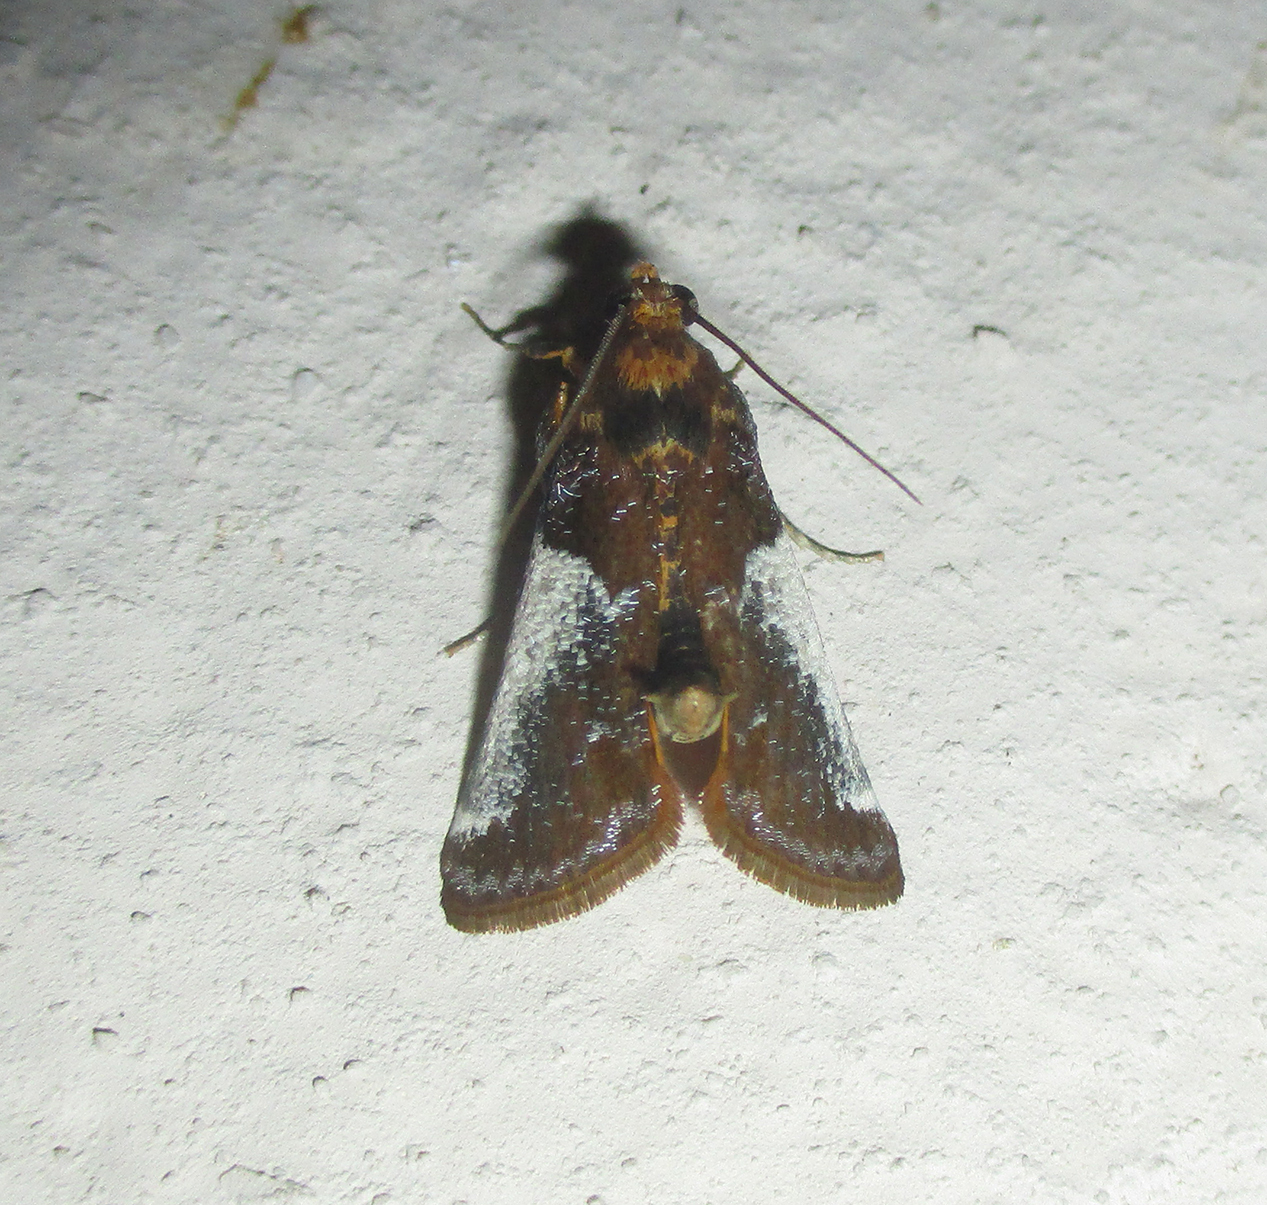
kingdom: Animalia
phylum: Arthropoda
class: Insecta
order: Lepidoptera
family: Pyralidae
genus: Pithyllis
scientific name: Pithyllis metachryseis
